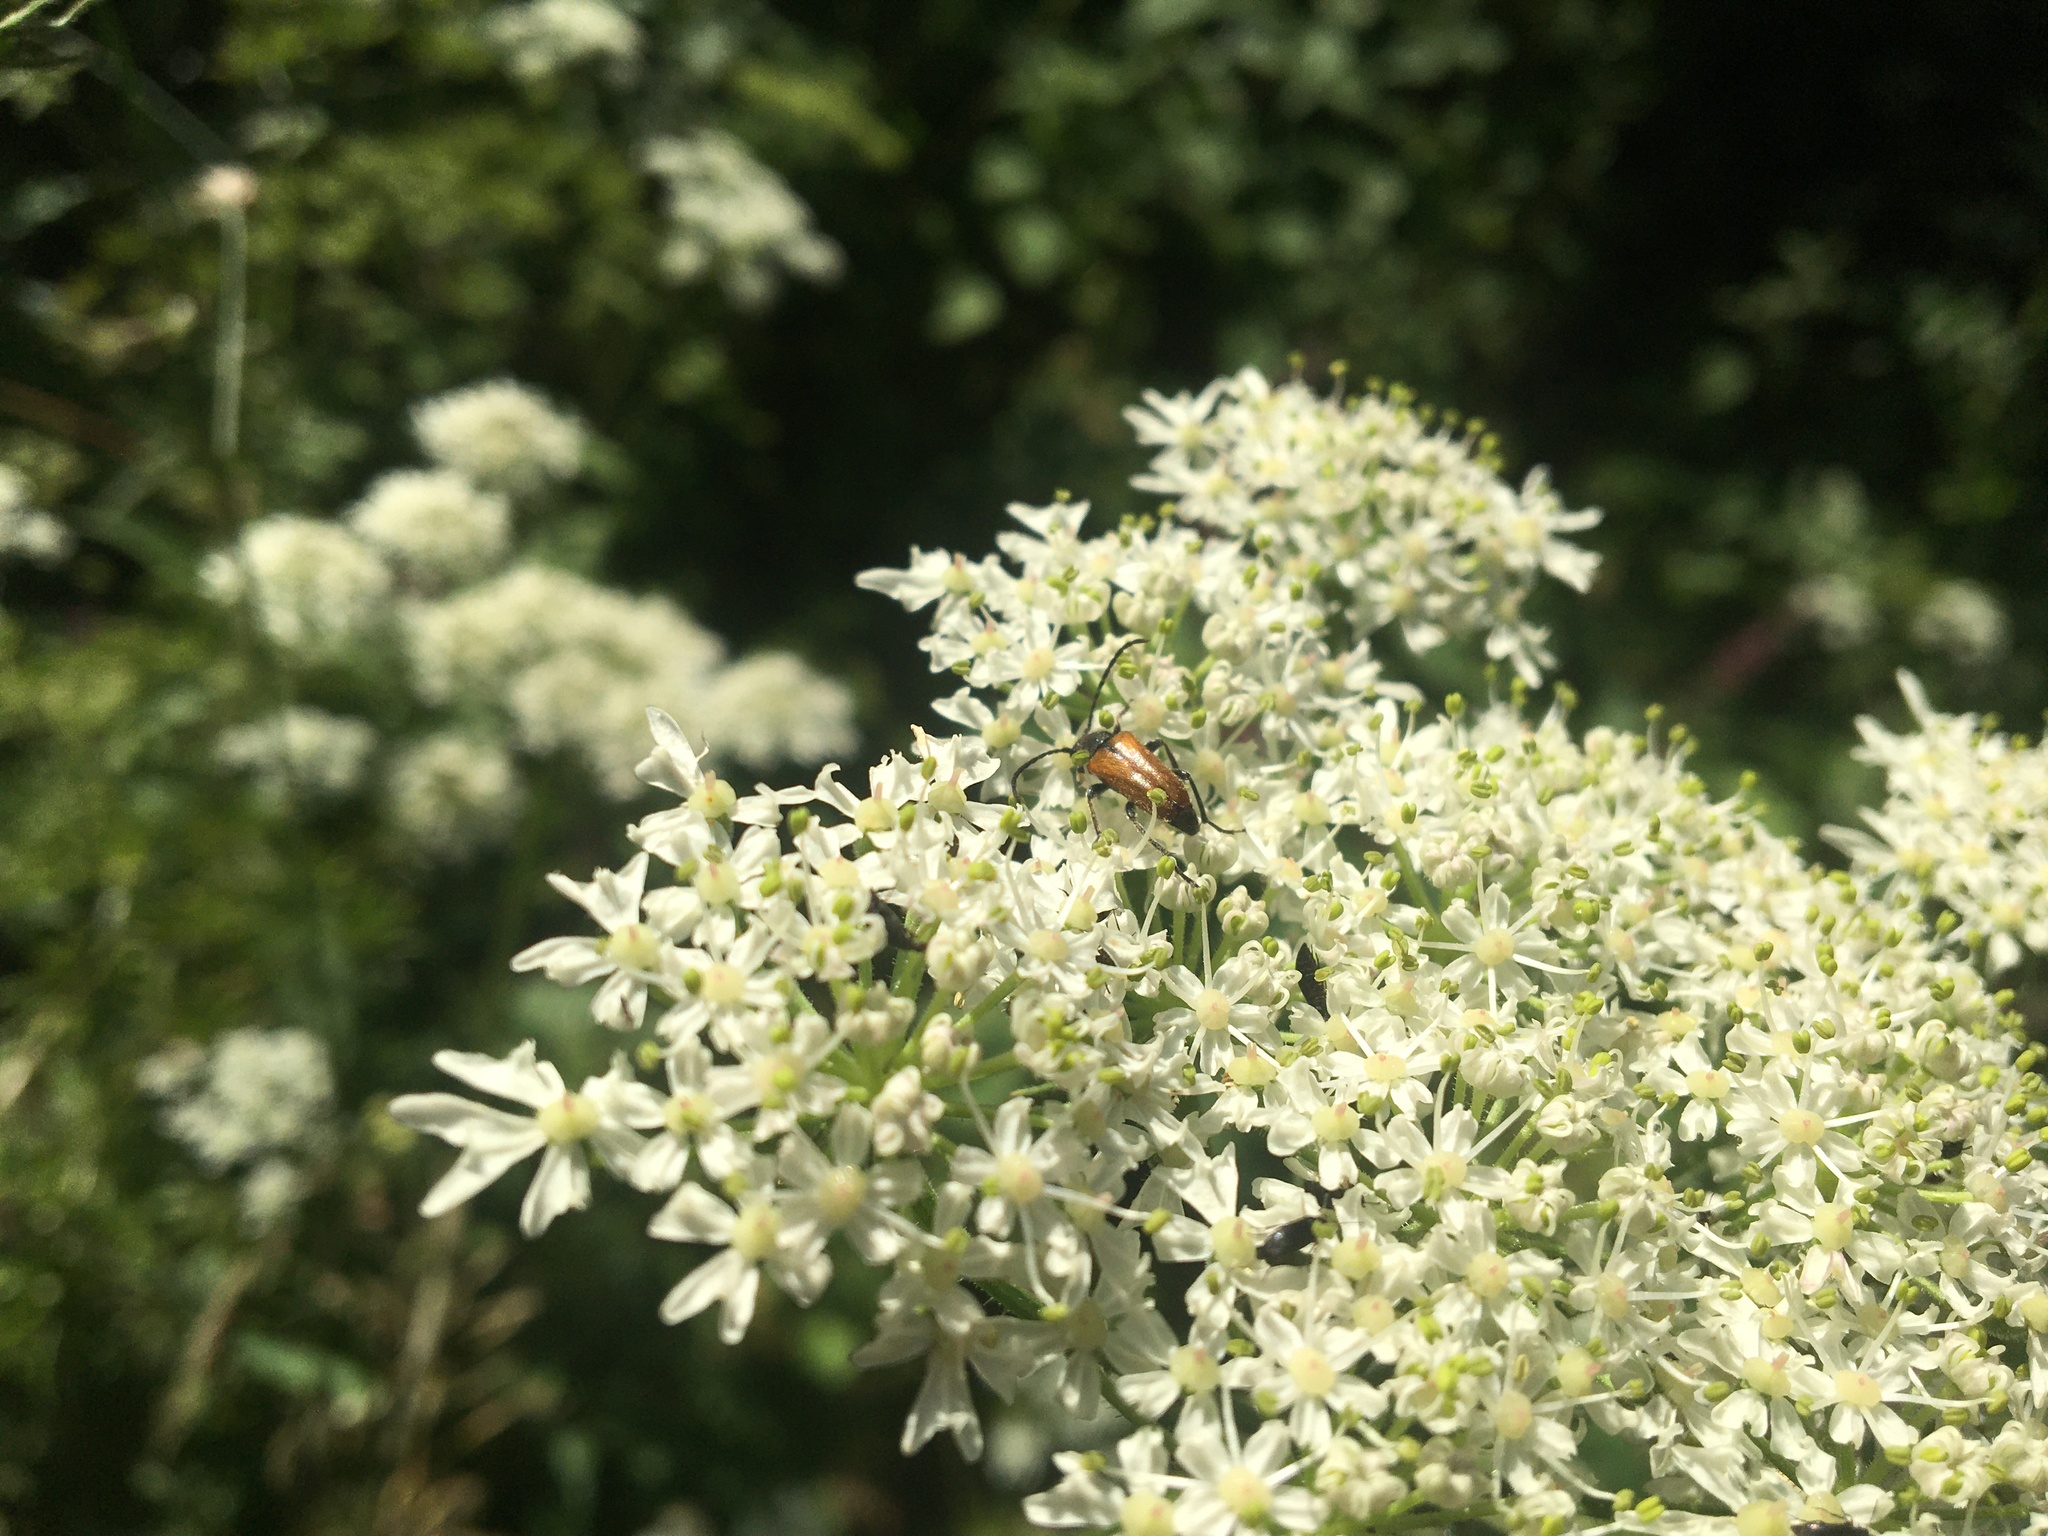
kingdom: Animalia
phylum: Arthropoda
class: Insecta
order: Coleoptera
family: Cerambycidae
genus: Pseudovadonia
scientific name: Pseudovadonia livida
